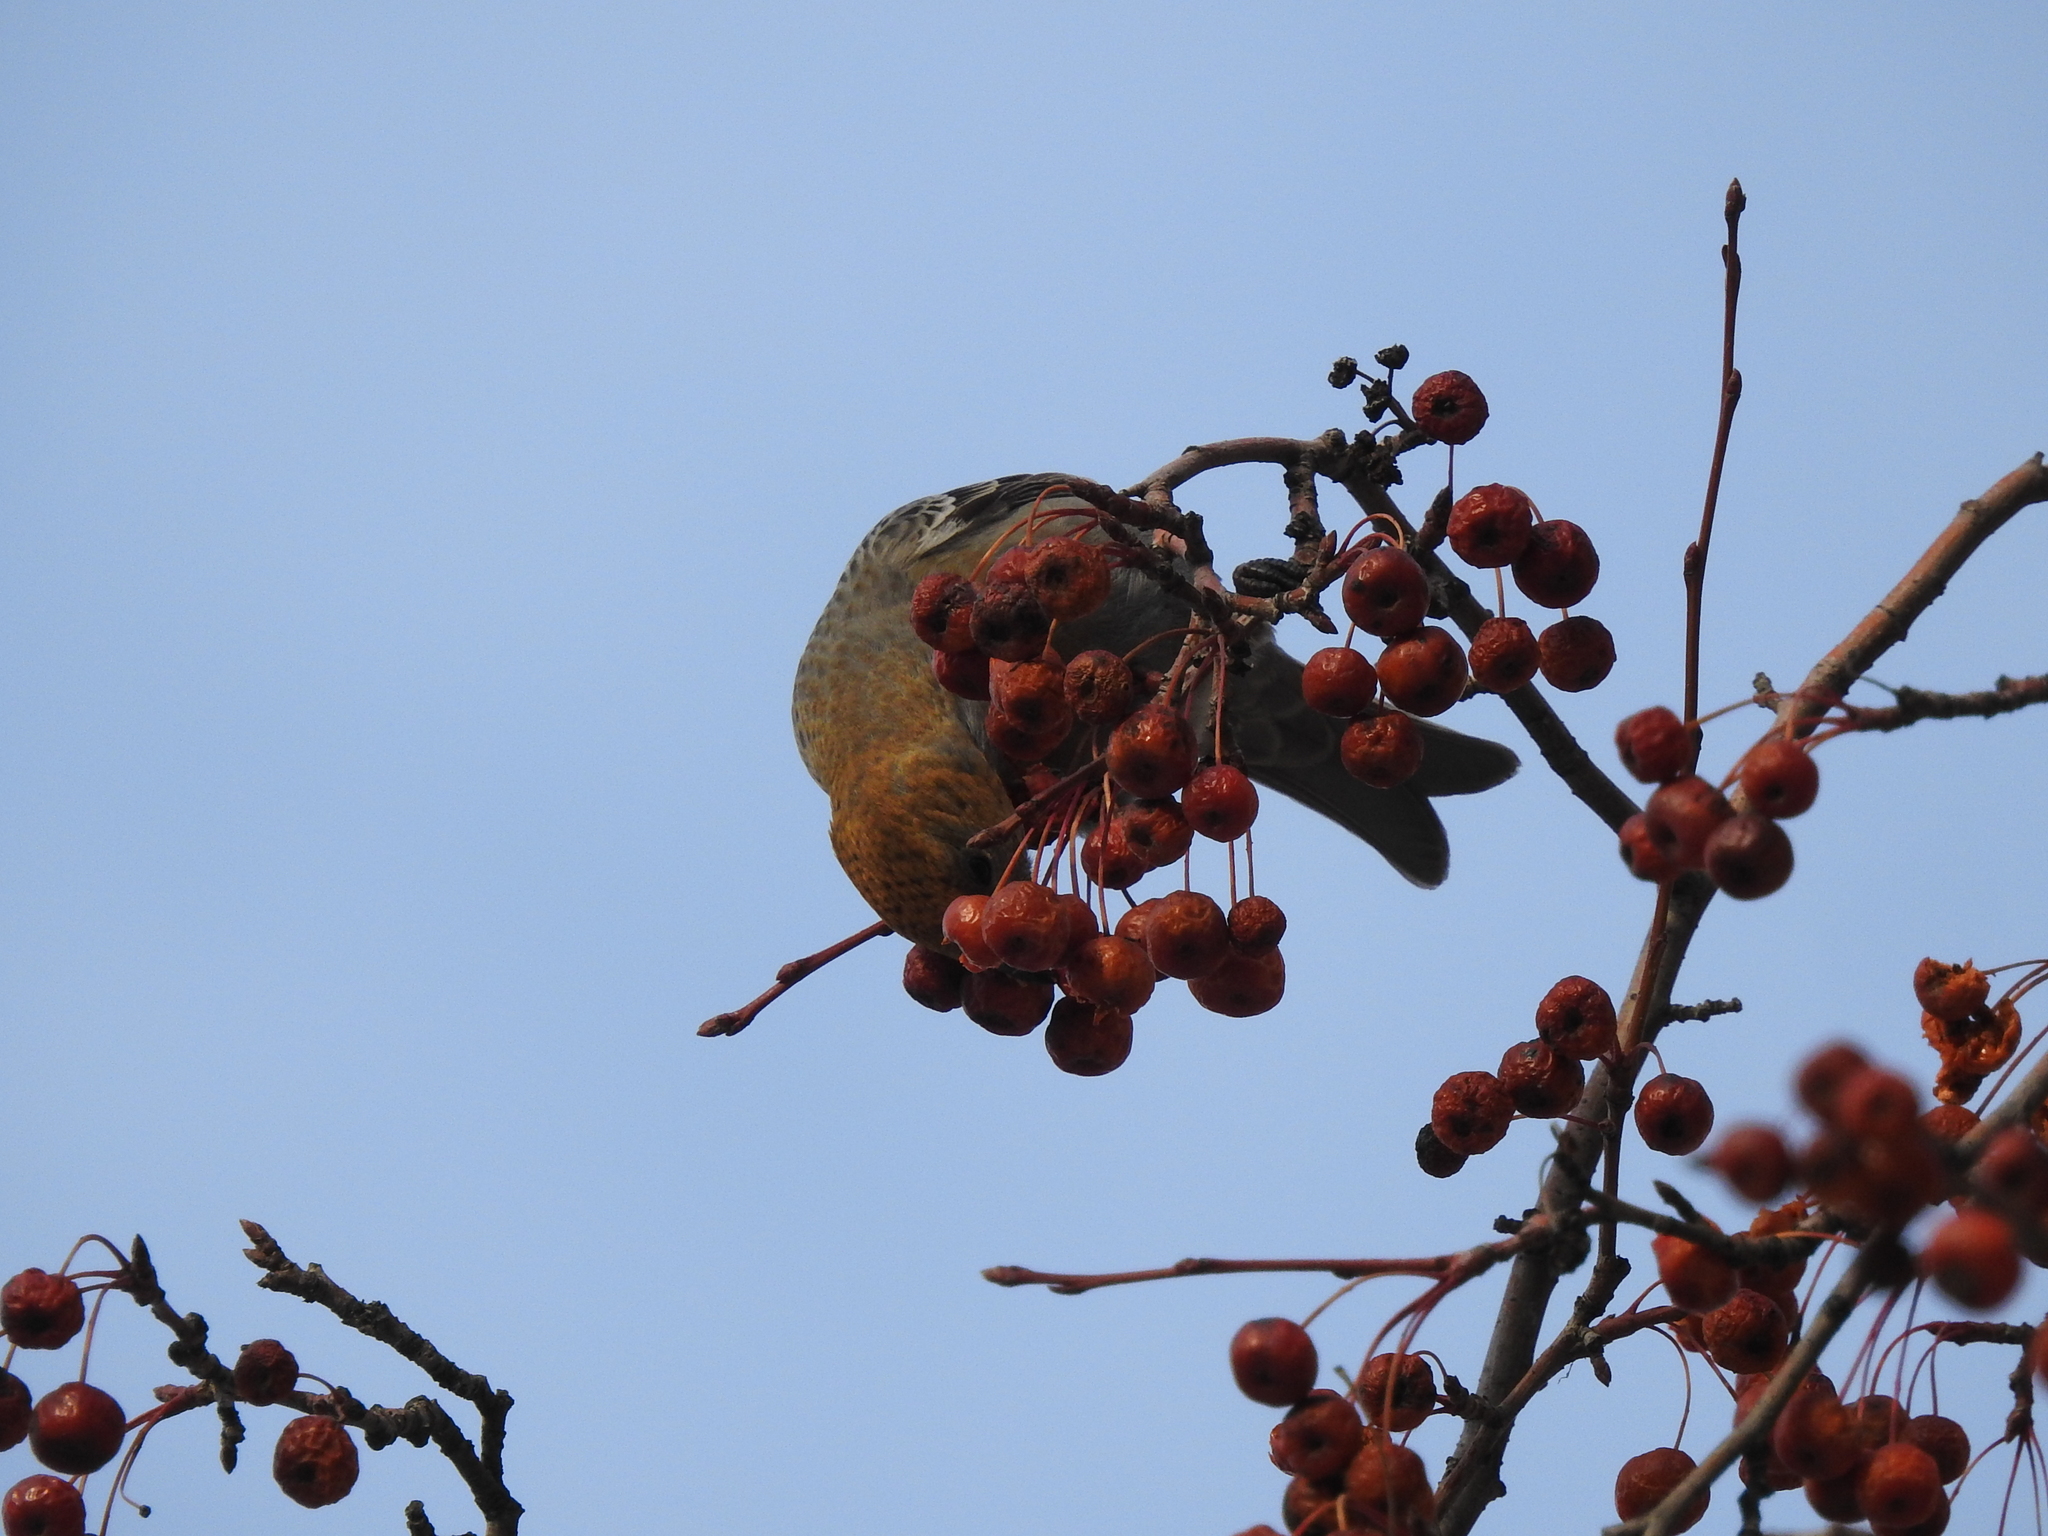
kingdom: Animalia
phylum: Chordata
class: Aves
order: Passeriformes
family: Fringillidae
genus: Pinicola
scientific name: Pinicola enucleator
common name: Pine grosbeak
